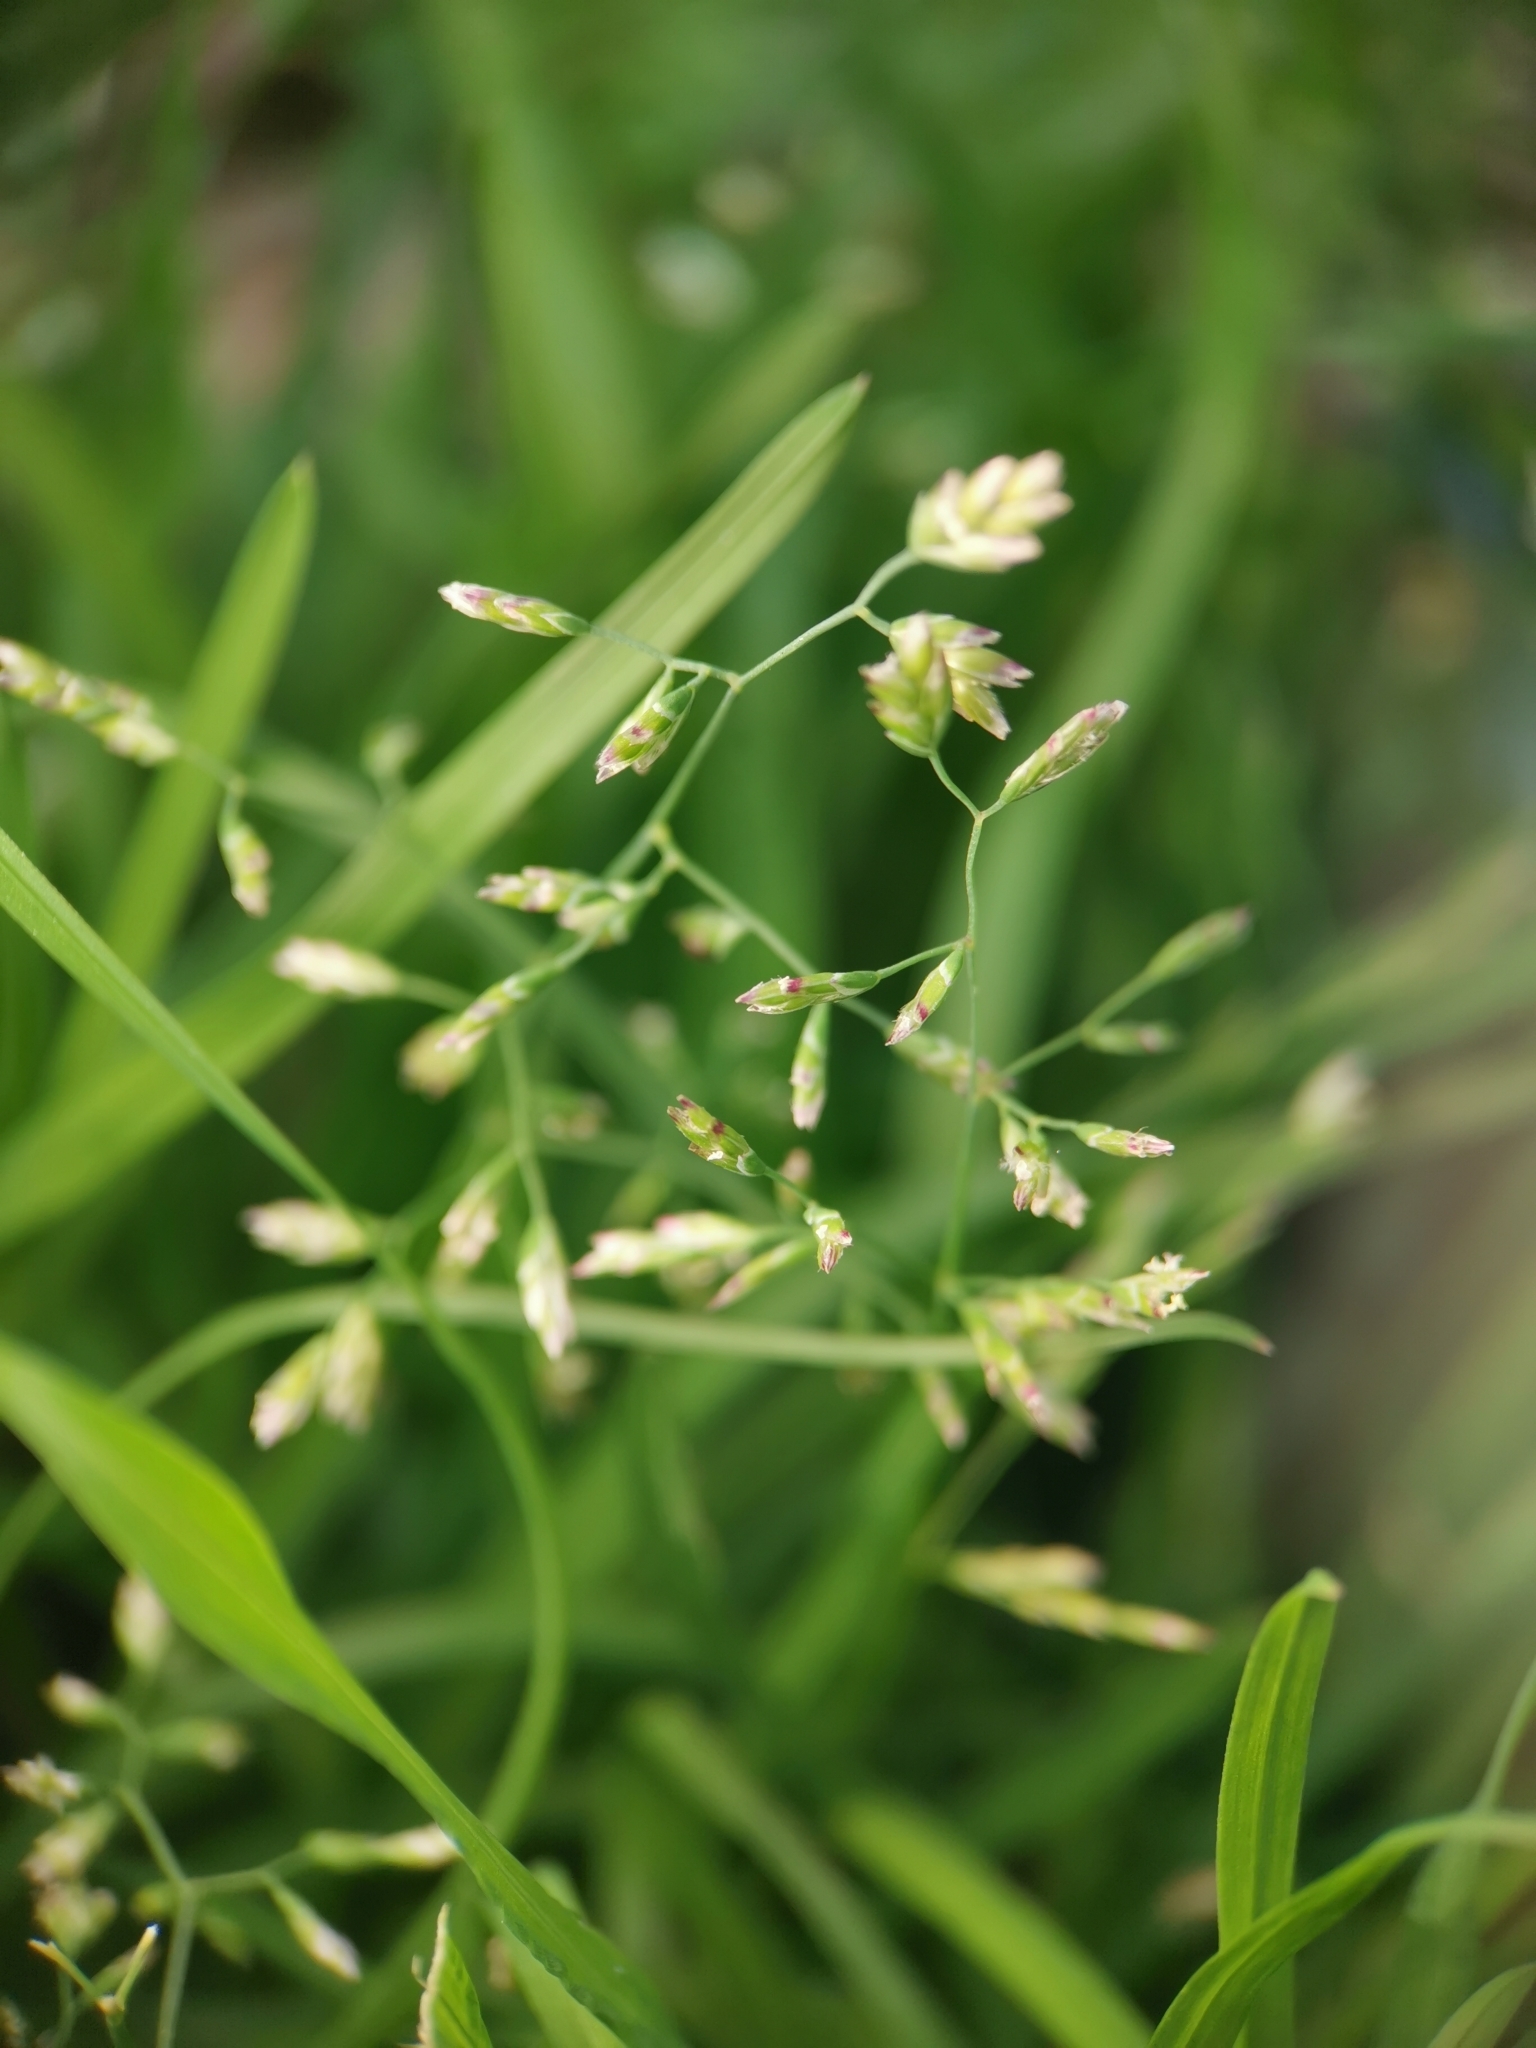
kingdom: Plantae
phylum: Tracheophyta
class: Liliopsida
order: Poales
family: Poaceae
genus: Poa
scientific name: Poa annua
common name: Annual bluegrass
